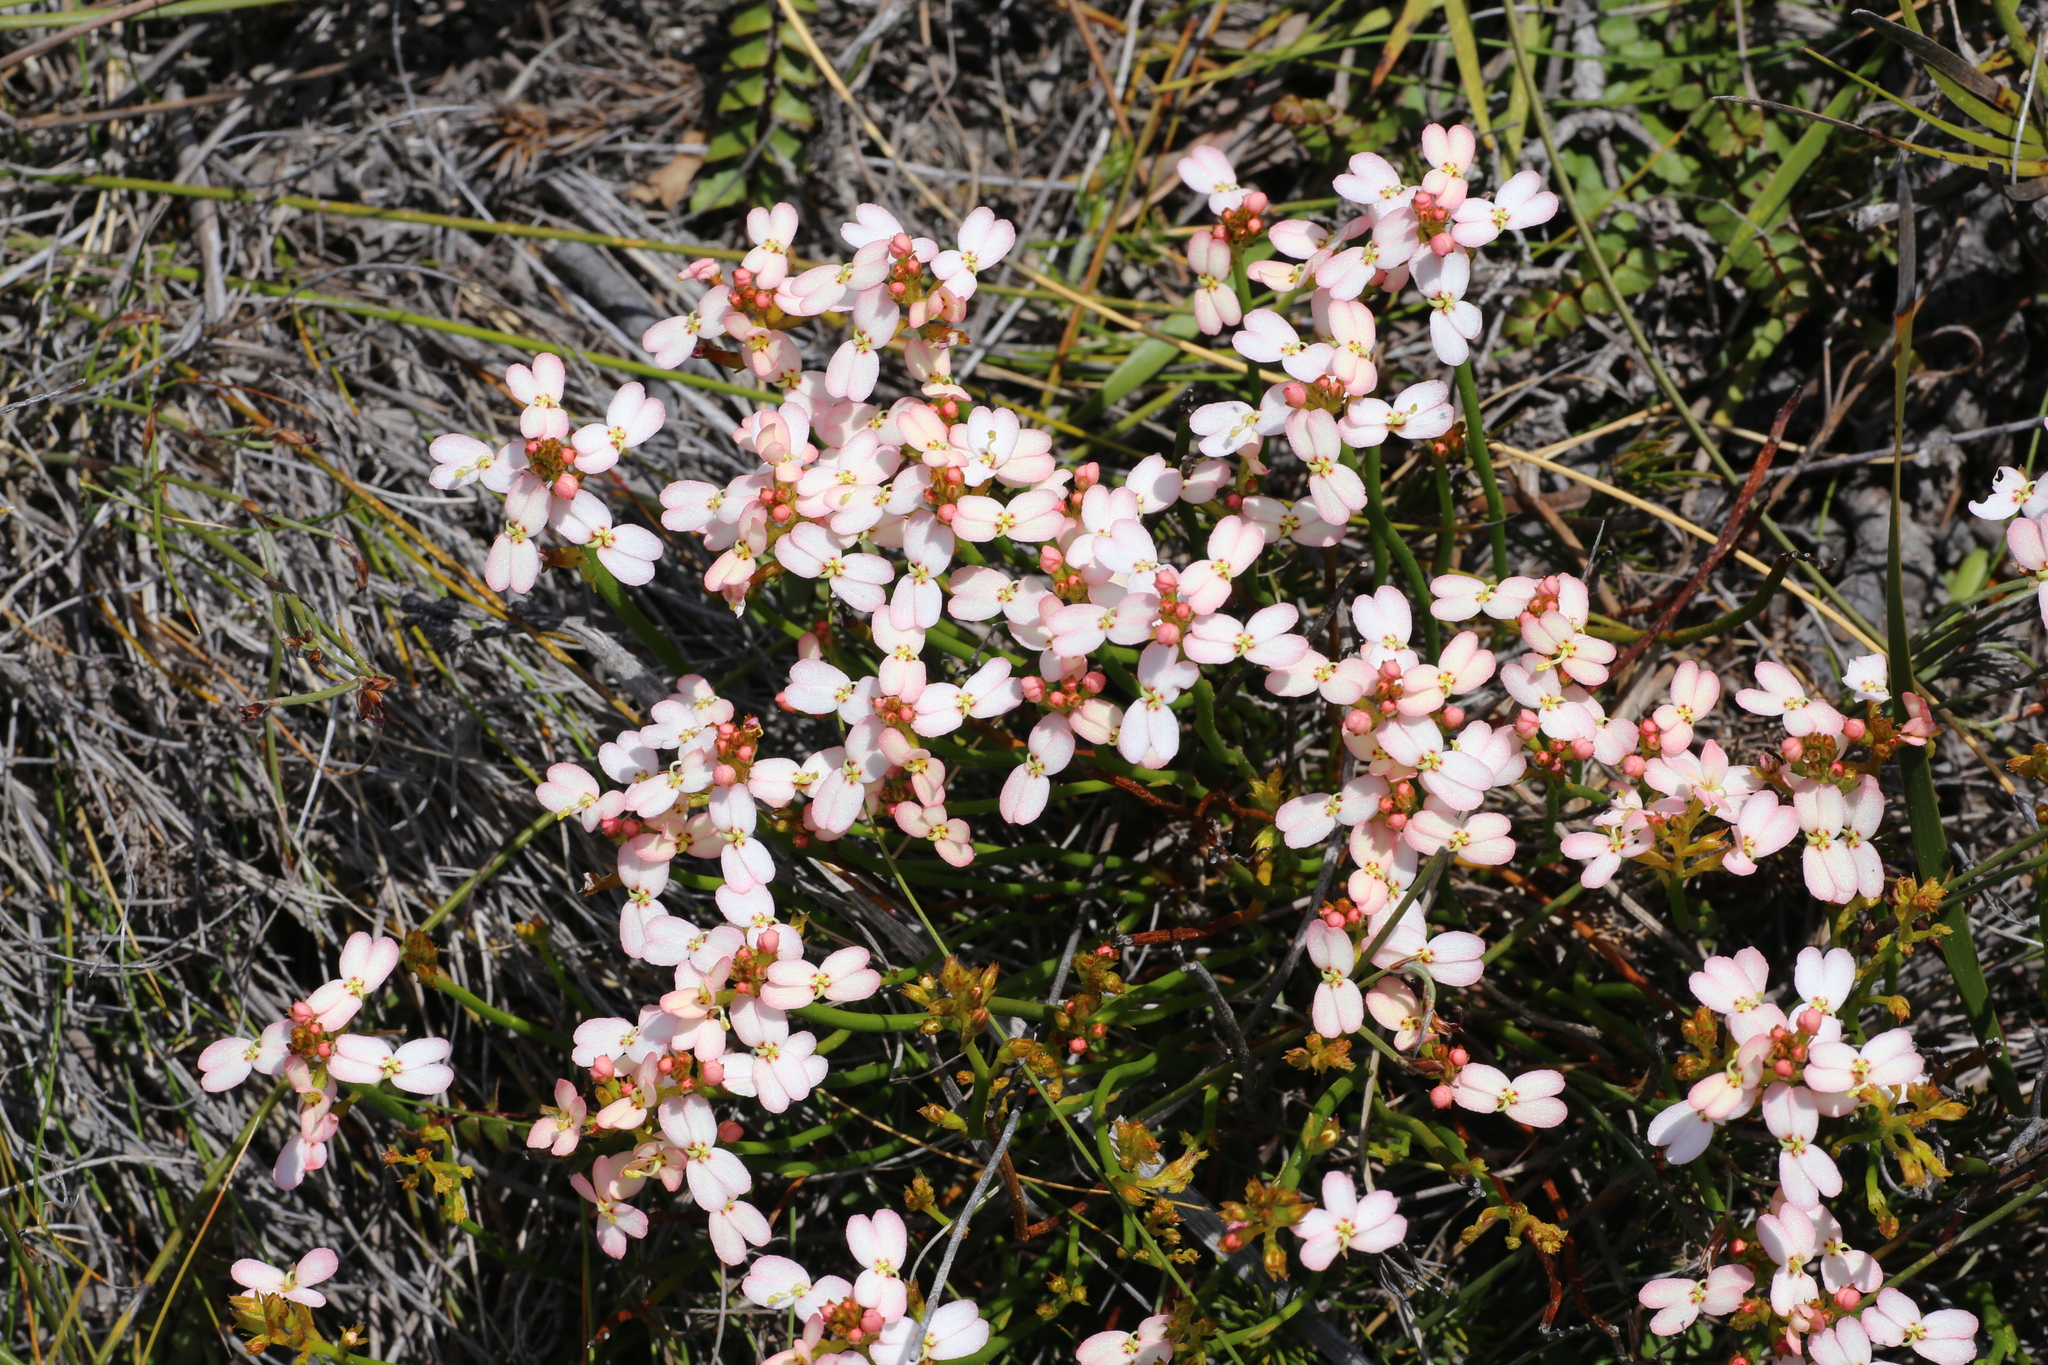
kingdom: Plantae
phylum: Tracheophyta
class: Magnoliopsida
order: Asterales
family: Stylidiaceae
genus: Stylidium
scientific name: Stylidium junceum
